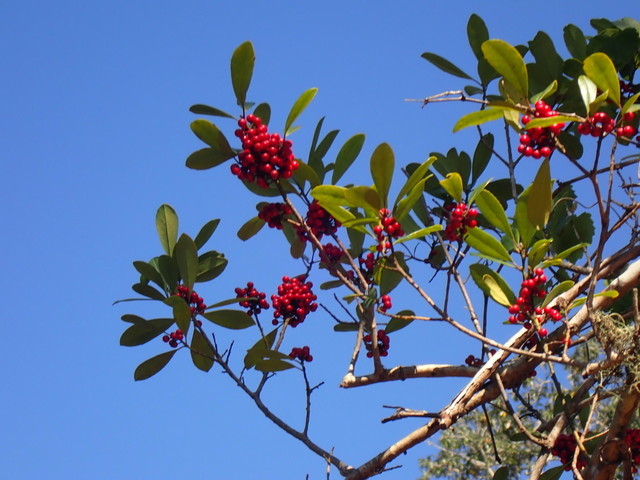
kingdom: Plantae
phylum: Tracheophyta
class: Magnoliopsida
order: Aquifoliales
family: Aquifoliaceae
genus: Ilex
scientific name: Ilex cassine
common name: Dahoon
